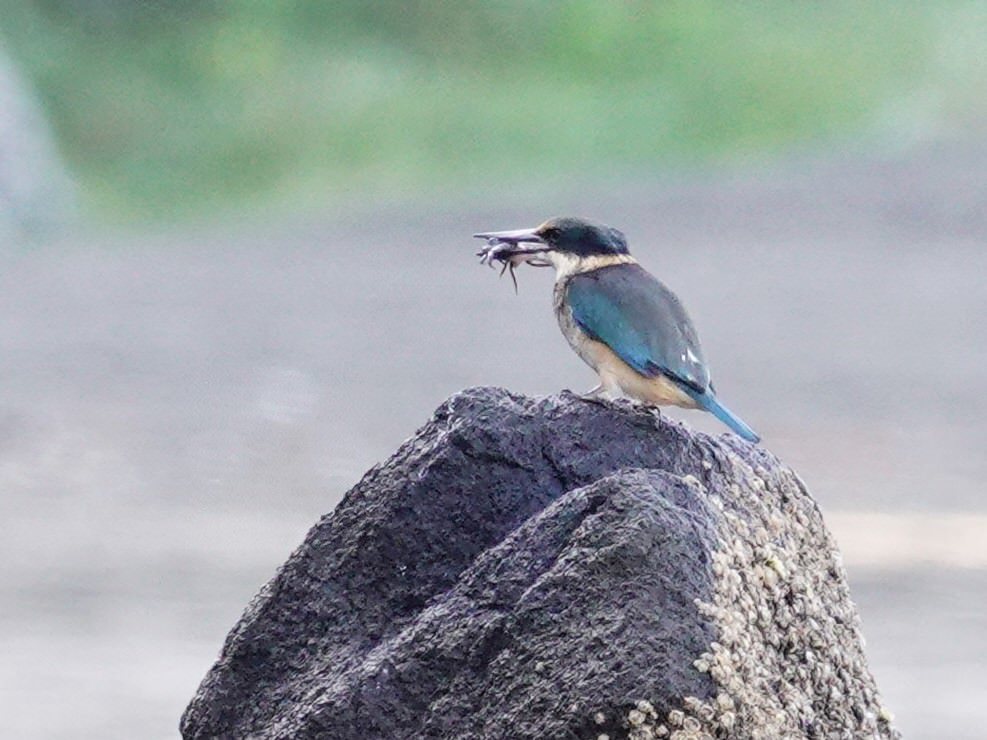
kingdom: Animalia
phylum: Chordata
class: Aves
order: Coraciiformes
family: Alcedinidae
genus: Todiramphus
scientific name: Todiramphus sanctus
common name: Sacred kingfisher
